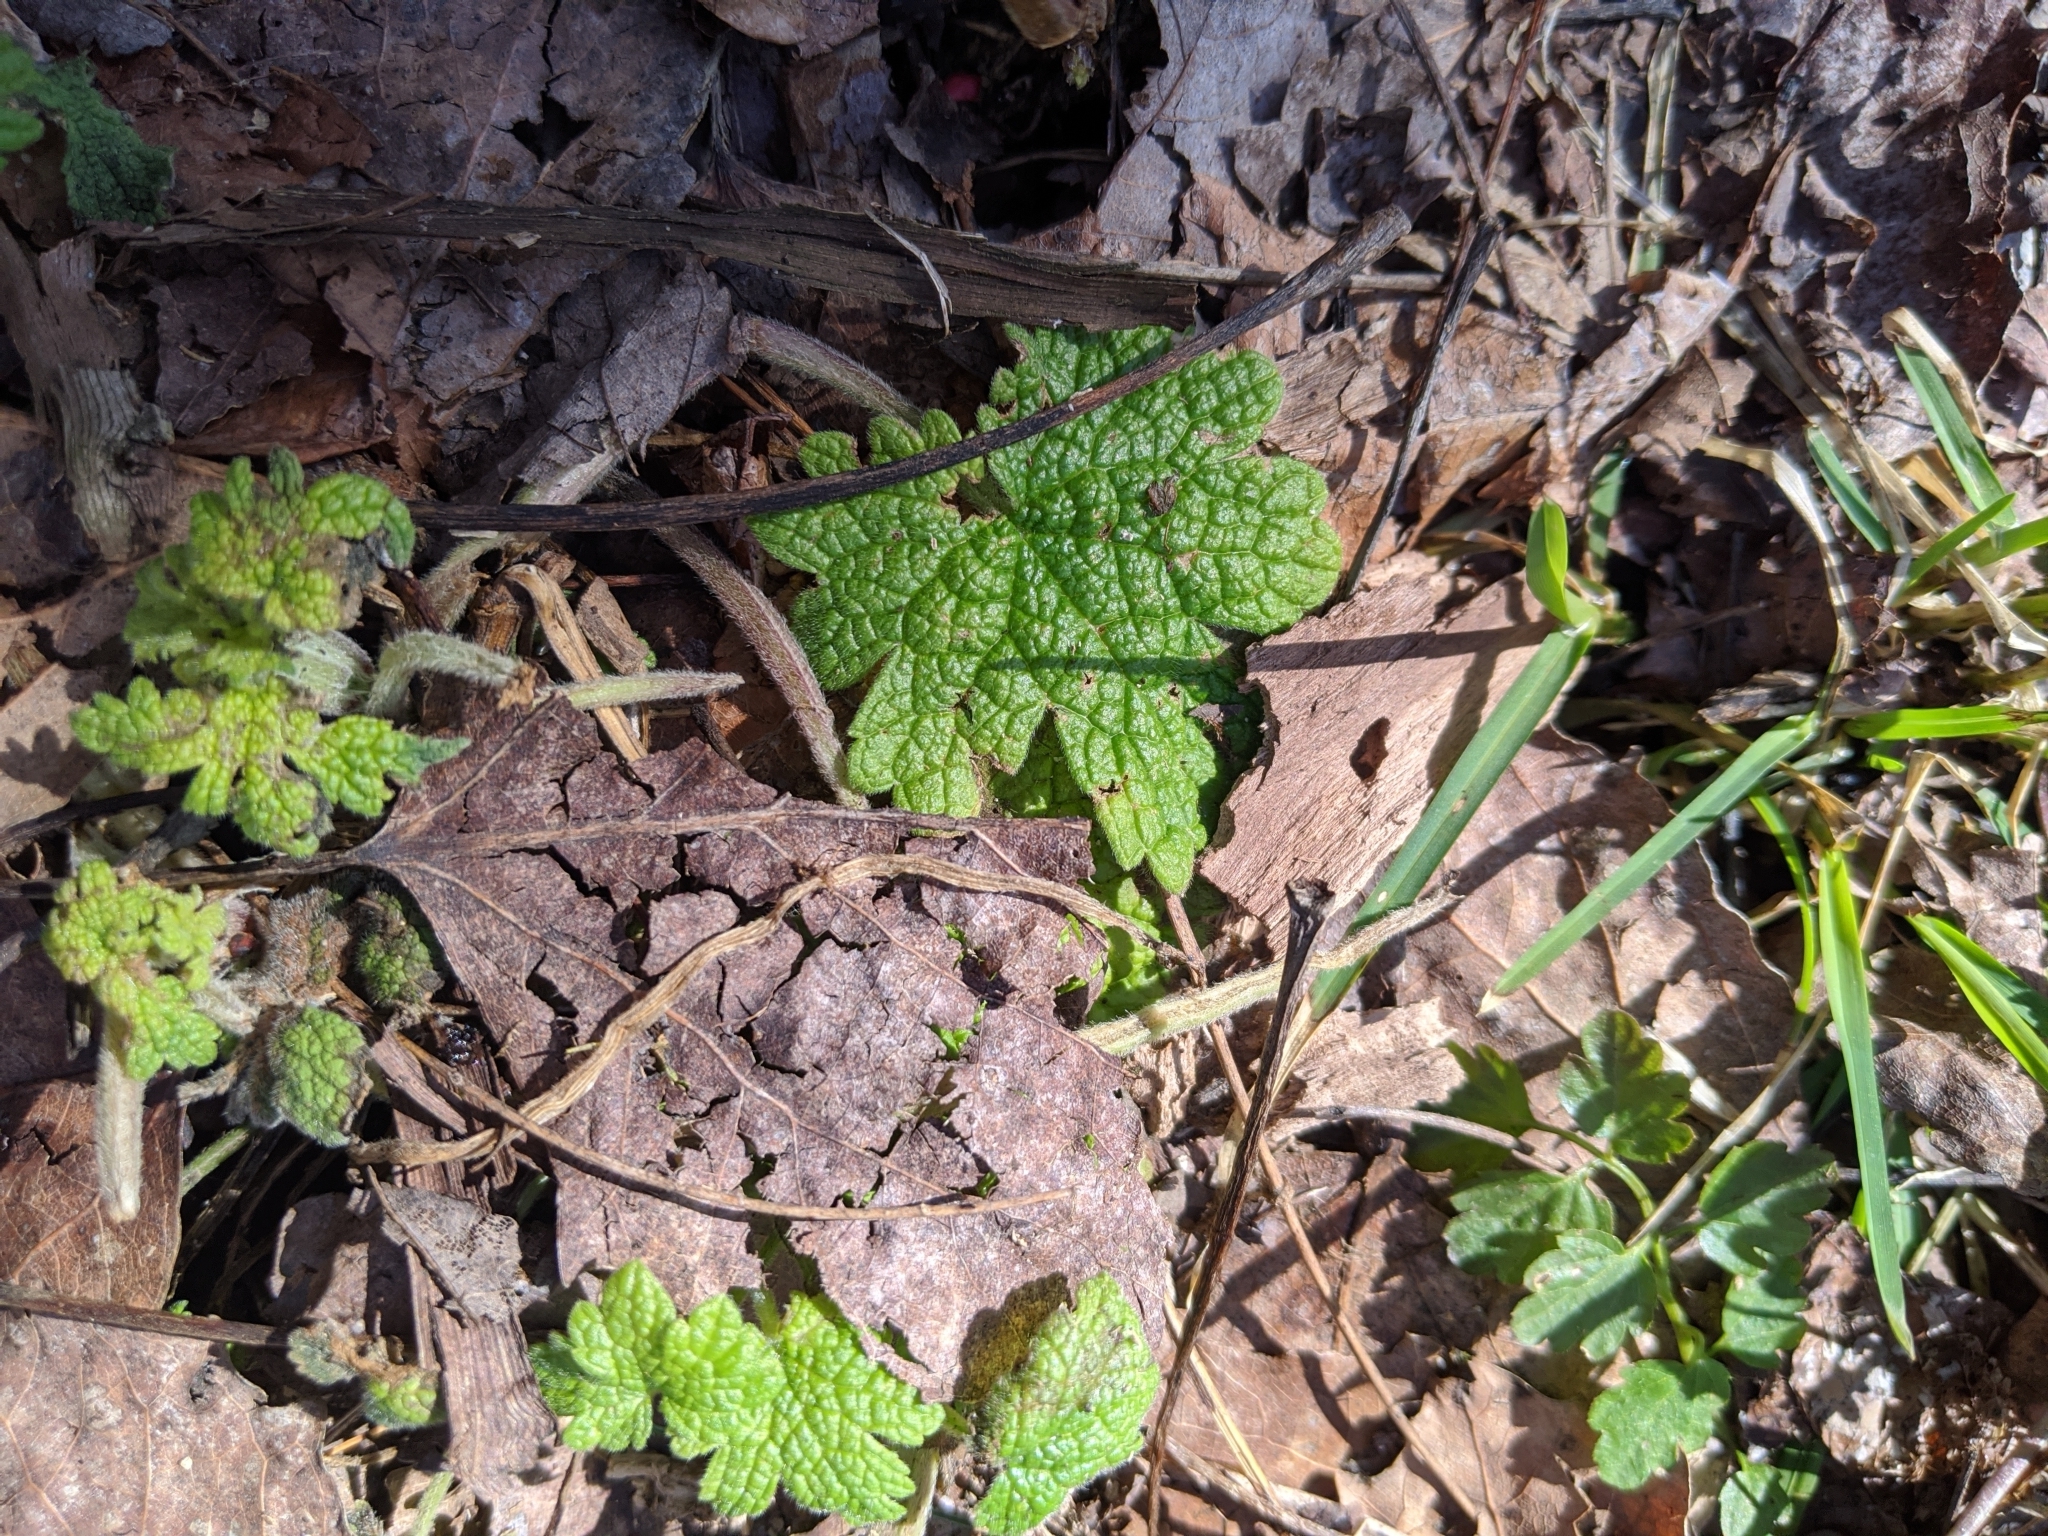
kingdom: Plantae
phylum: Tracheophyta
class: Magnoliopsida
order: Lamiales
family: Lamiaceae
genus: Leonurus
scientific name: Leonurus cardiaca
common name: Motherwort
